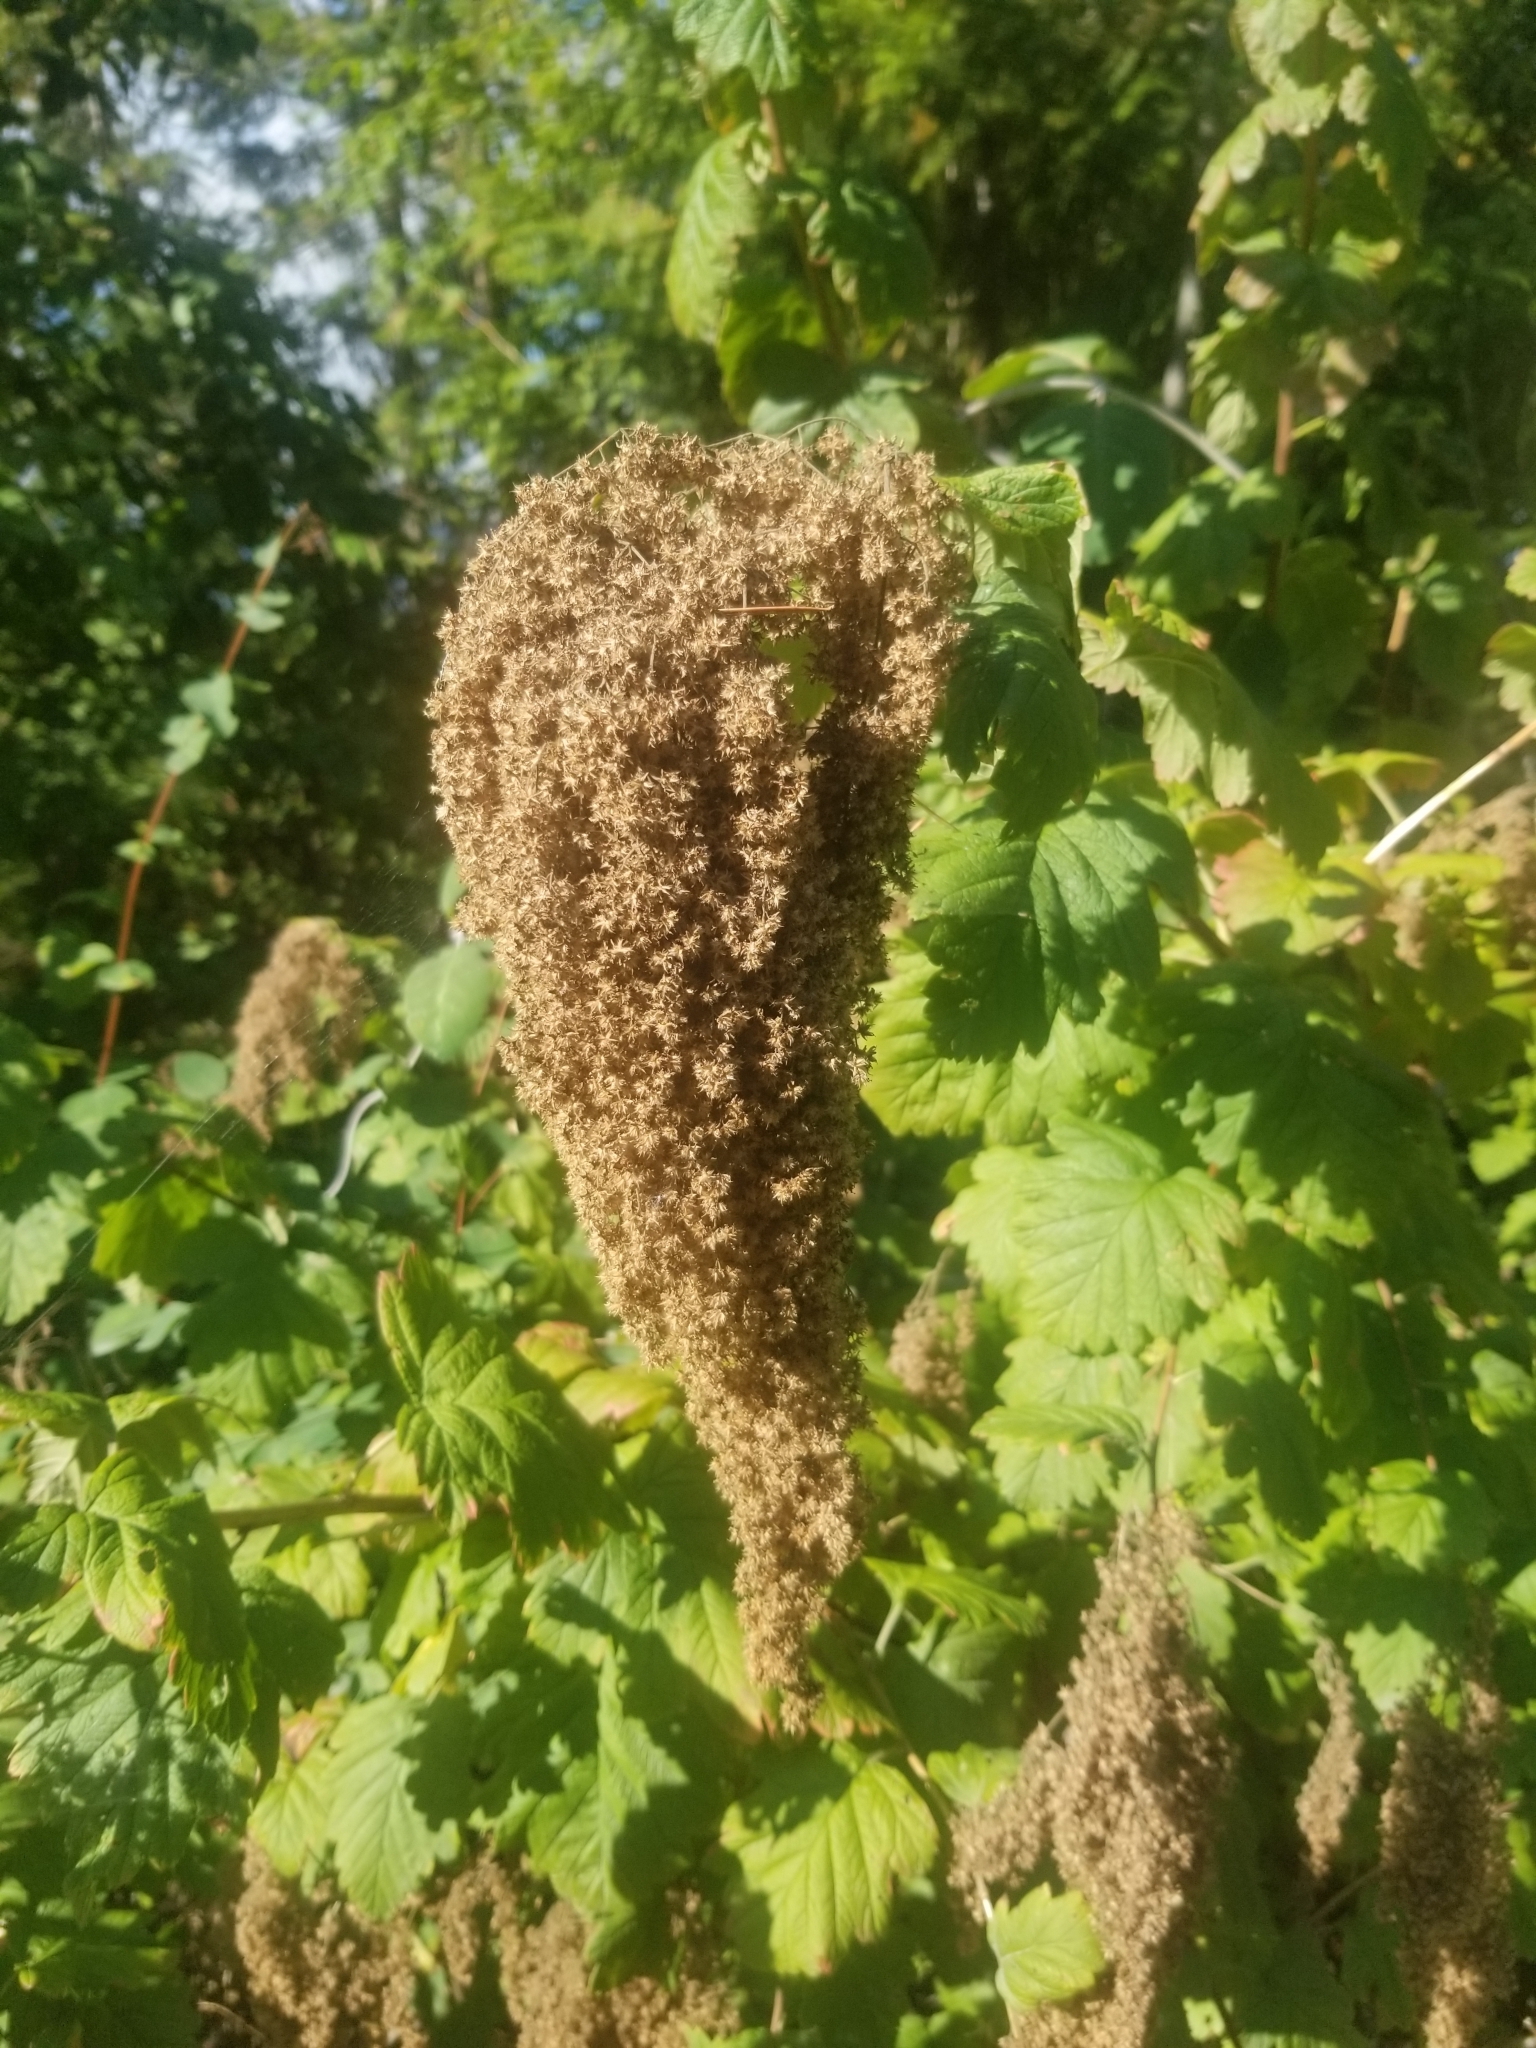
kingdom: Plantae
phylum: Tracheophyta
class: Magnoliopsida
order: Rosales
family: Rosaceae
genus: Holodiscus
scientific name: Holodiscus discolor
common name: Oceanspray
